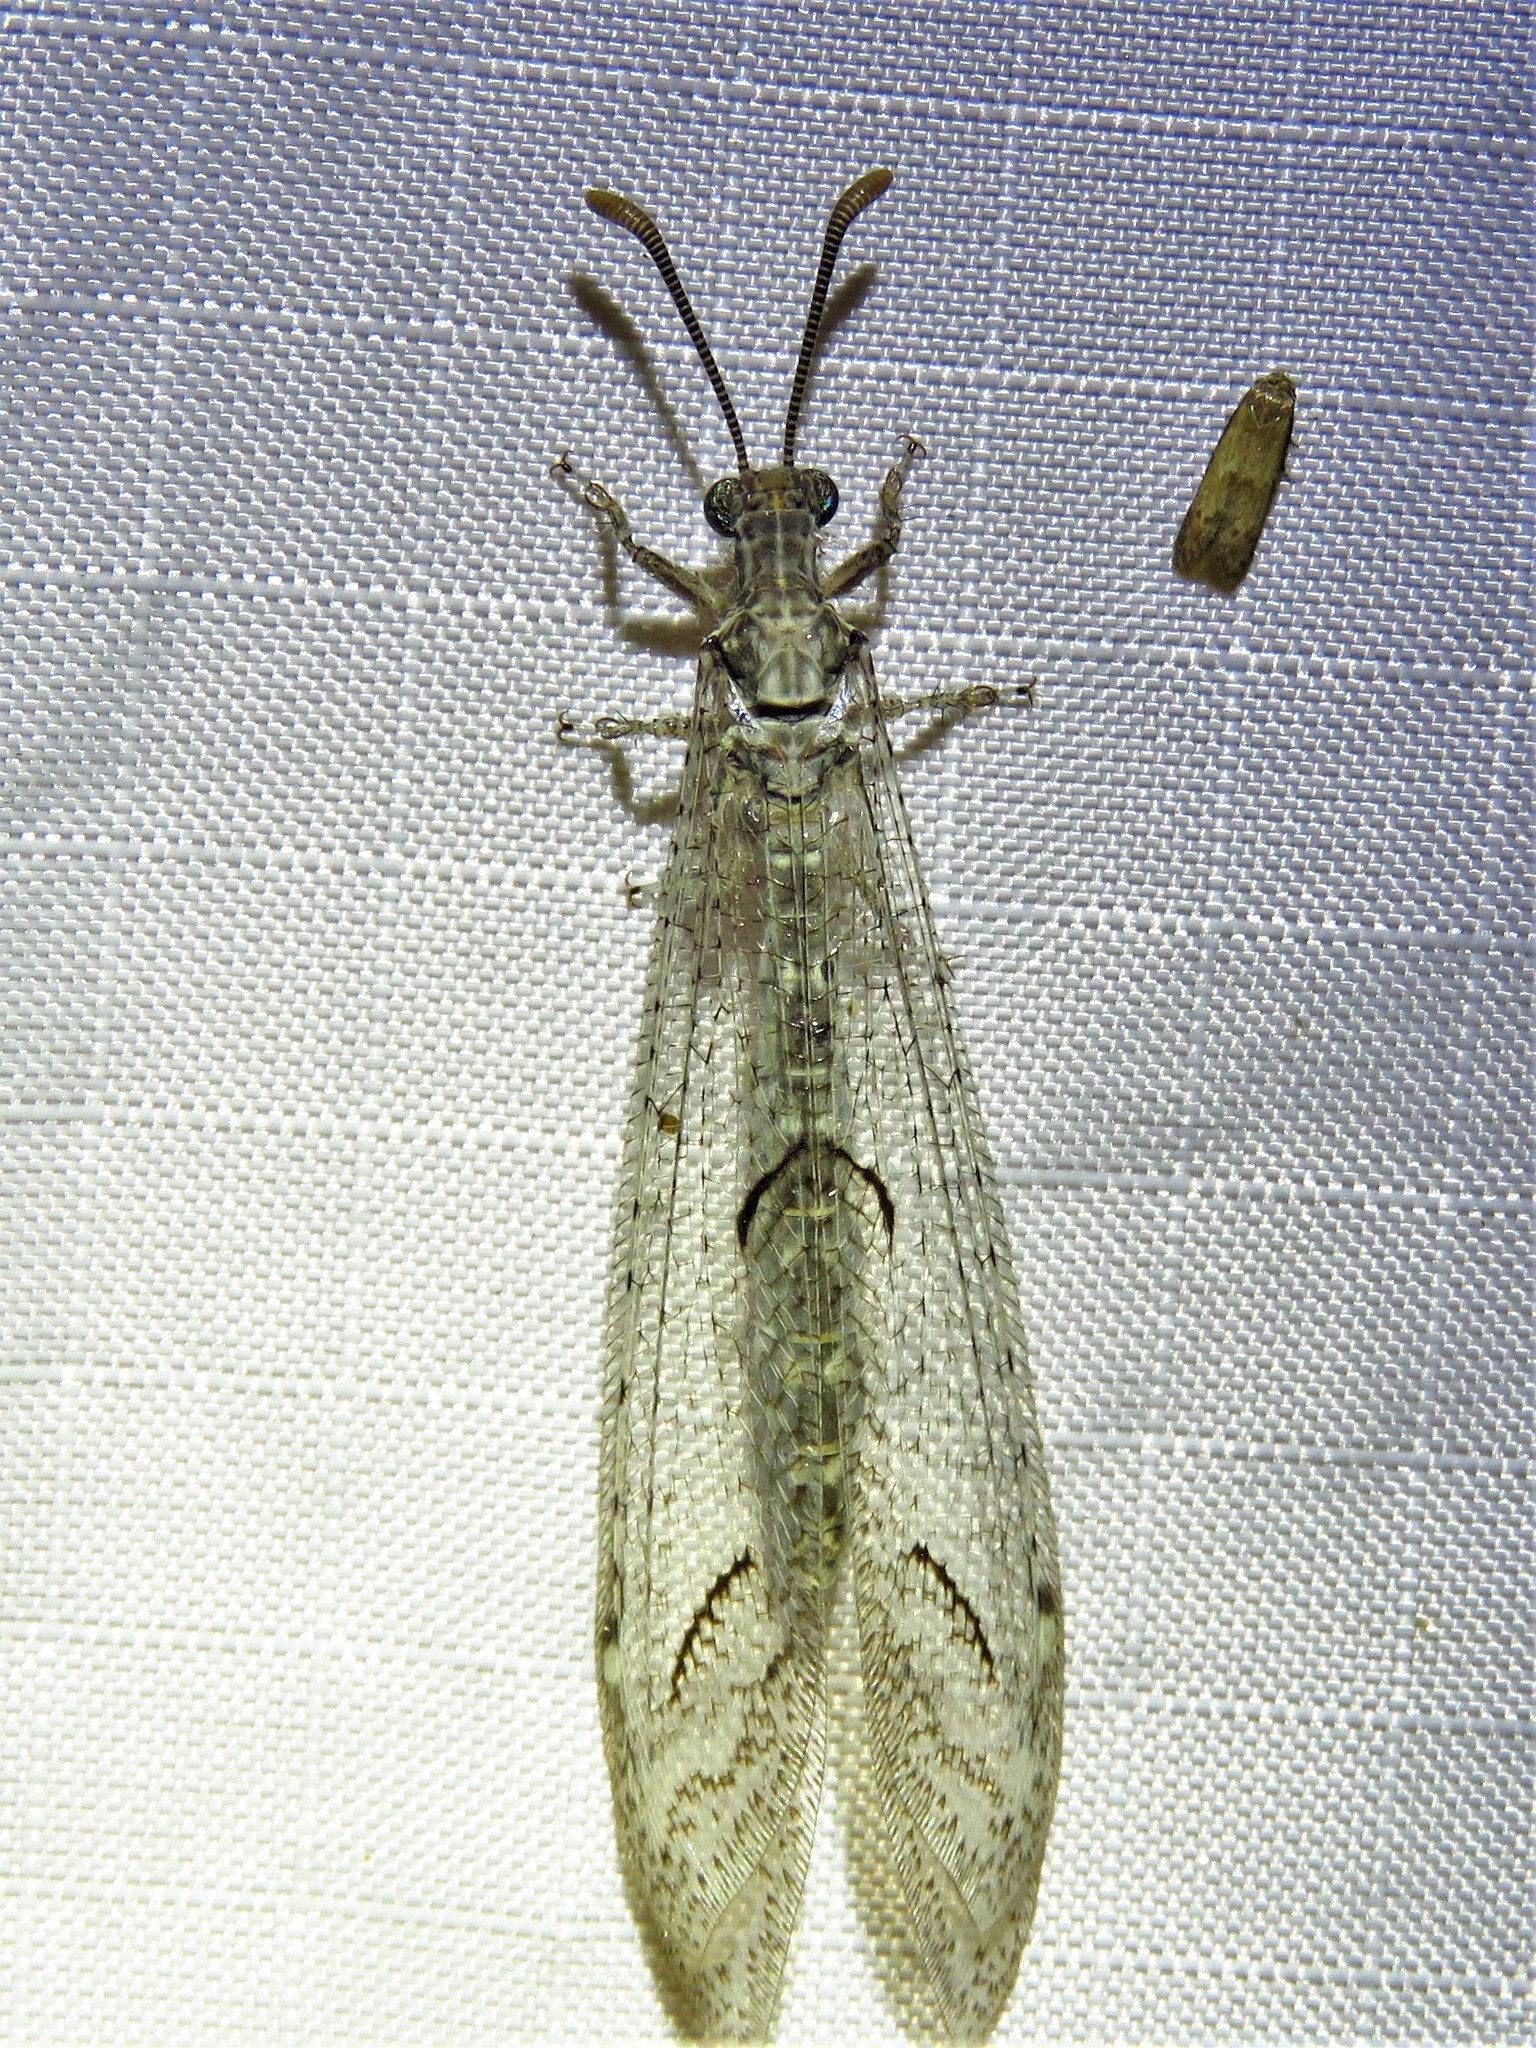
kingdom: Animalia
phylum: Arthropoda
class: Insecta
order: Neuroptera
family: Myrmeleontidae
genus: Euptilon
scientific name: Euptilon ornatum
